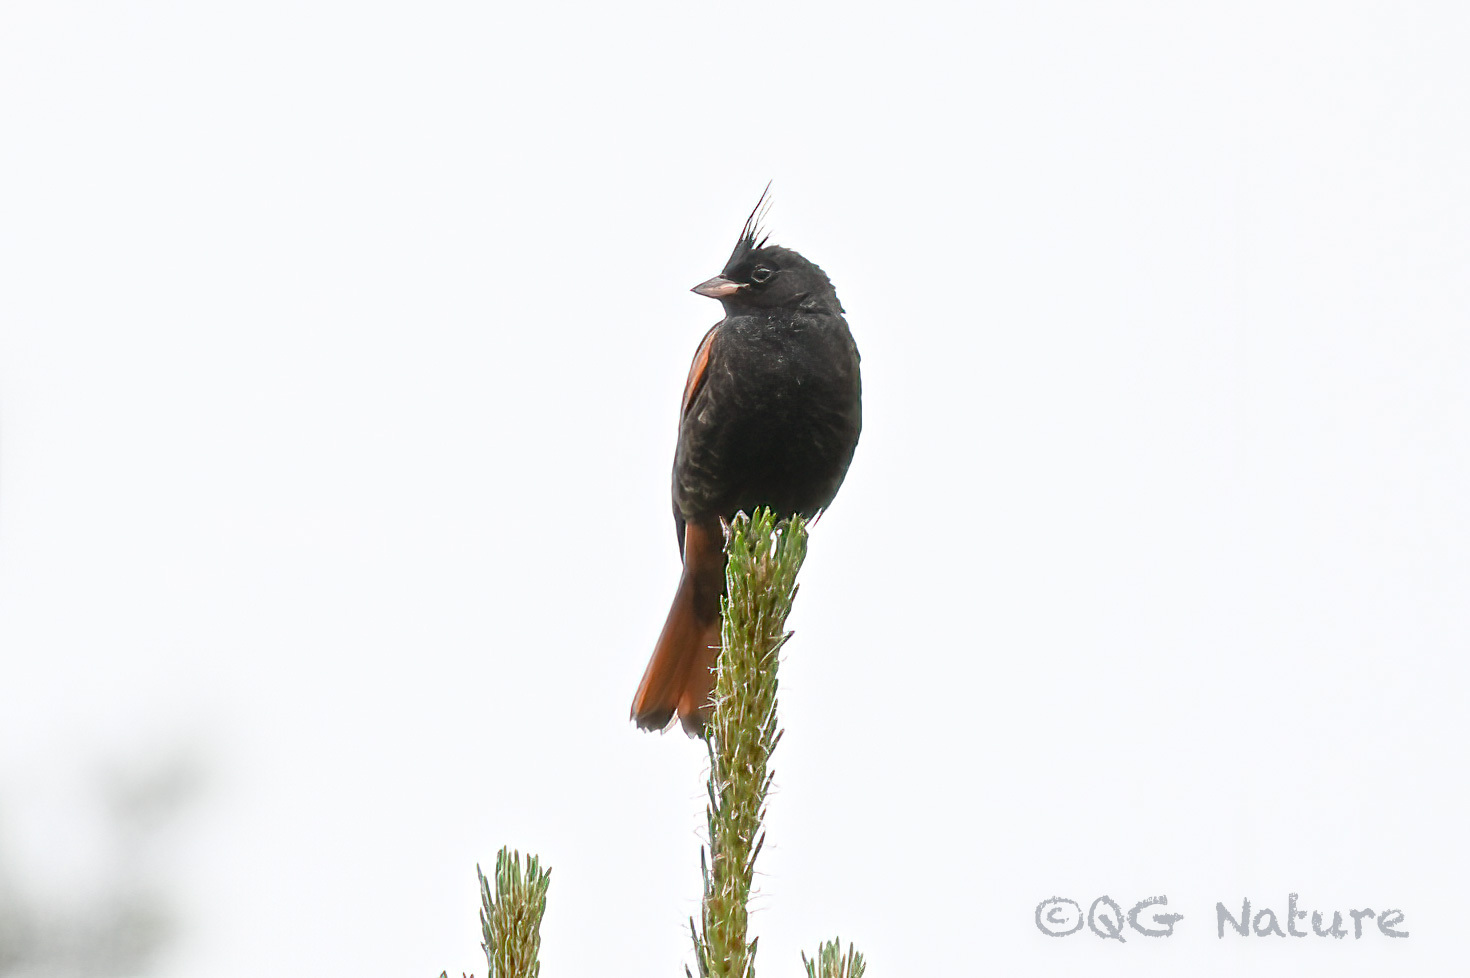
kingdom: Animalia
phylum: Chordata
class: Aves
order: Passeriformes
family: Emberizidae
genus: Emberiza
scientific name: Emberiza lathami
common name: Crested bunting
